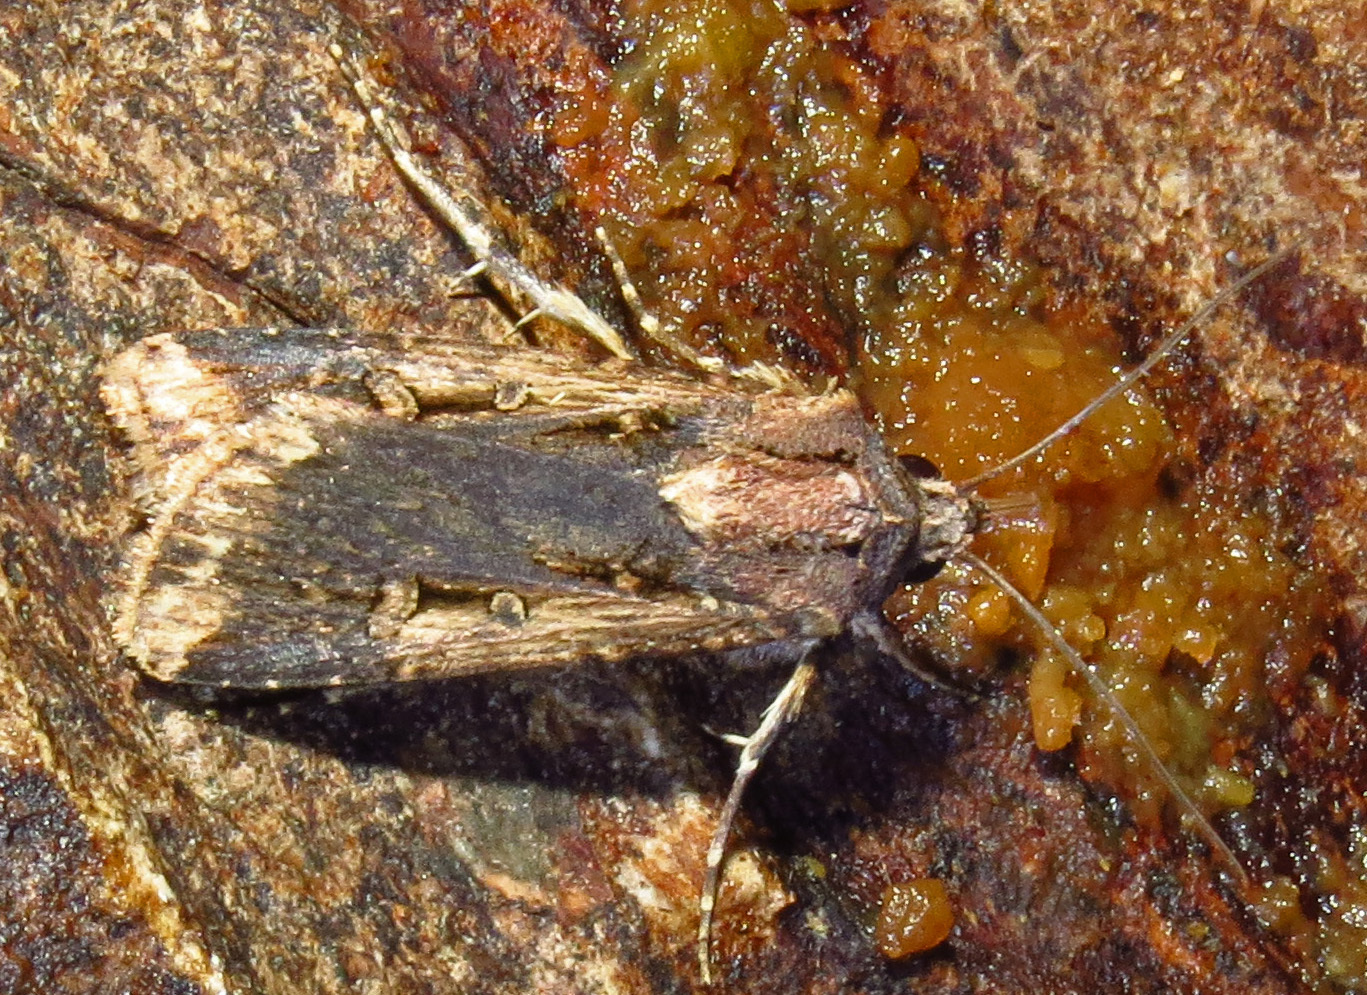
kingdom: Animalia
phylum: Arthropoda
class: Insecta
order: Lepidoptera
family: Noctuidae
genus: Feltia
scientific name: Feltia subterranea
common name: Granulate cutworm
